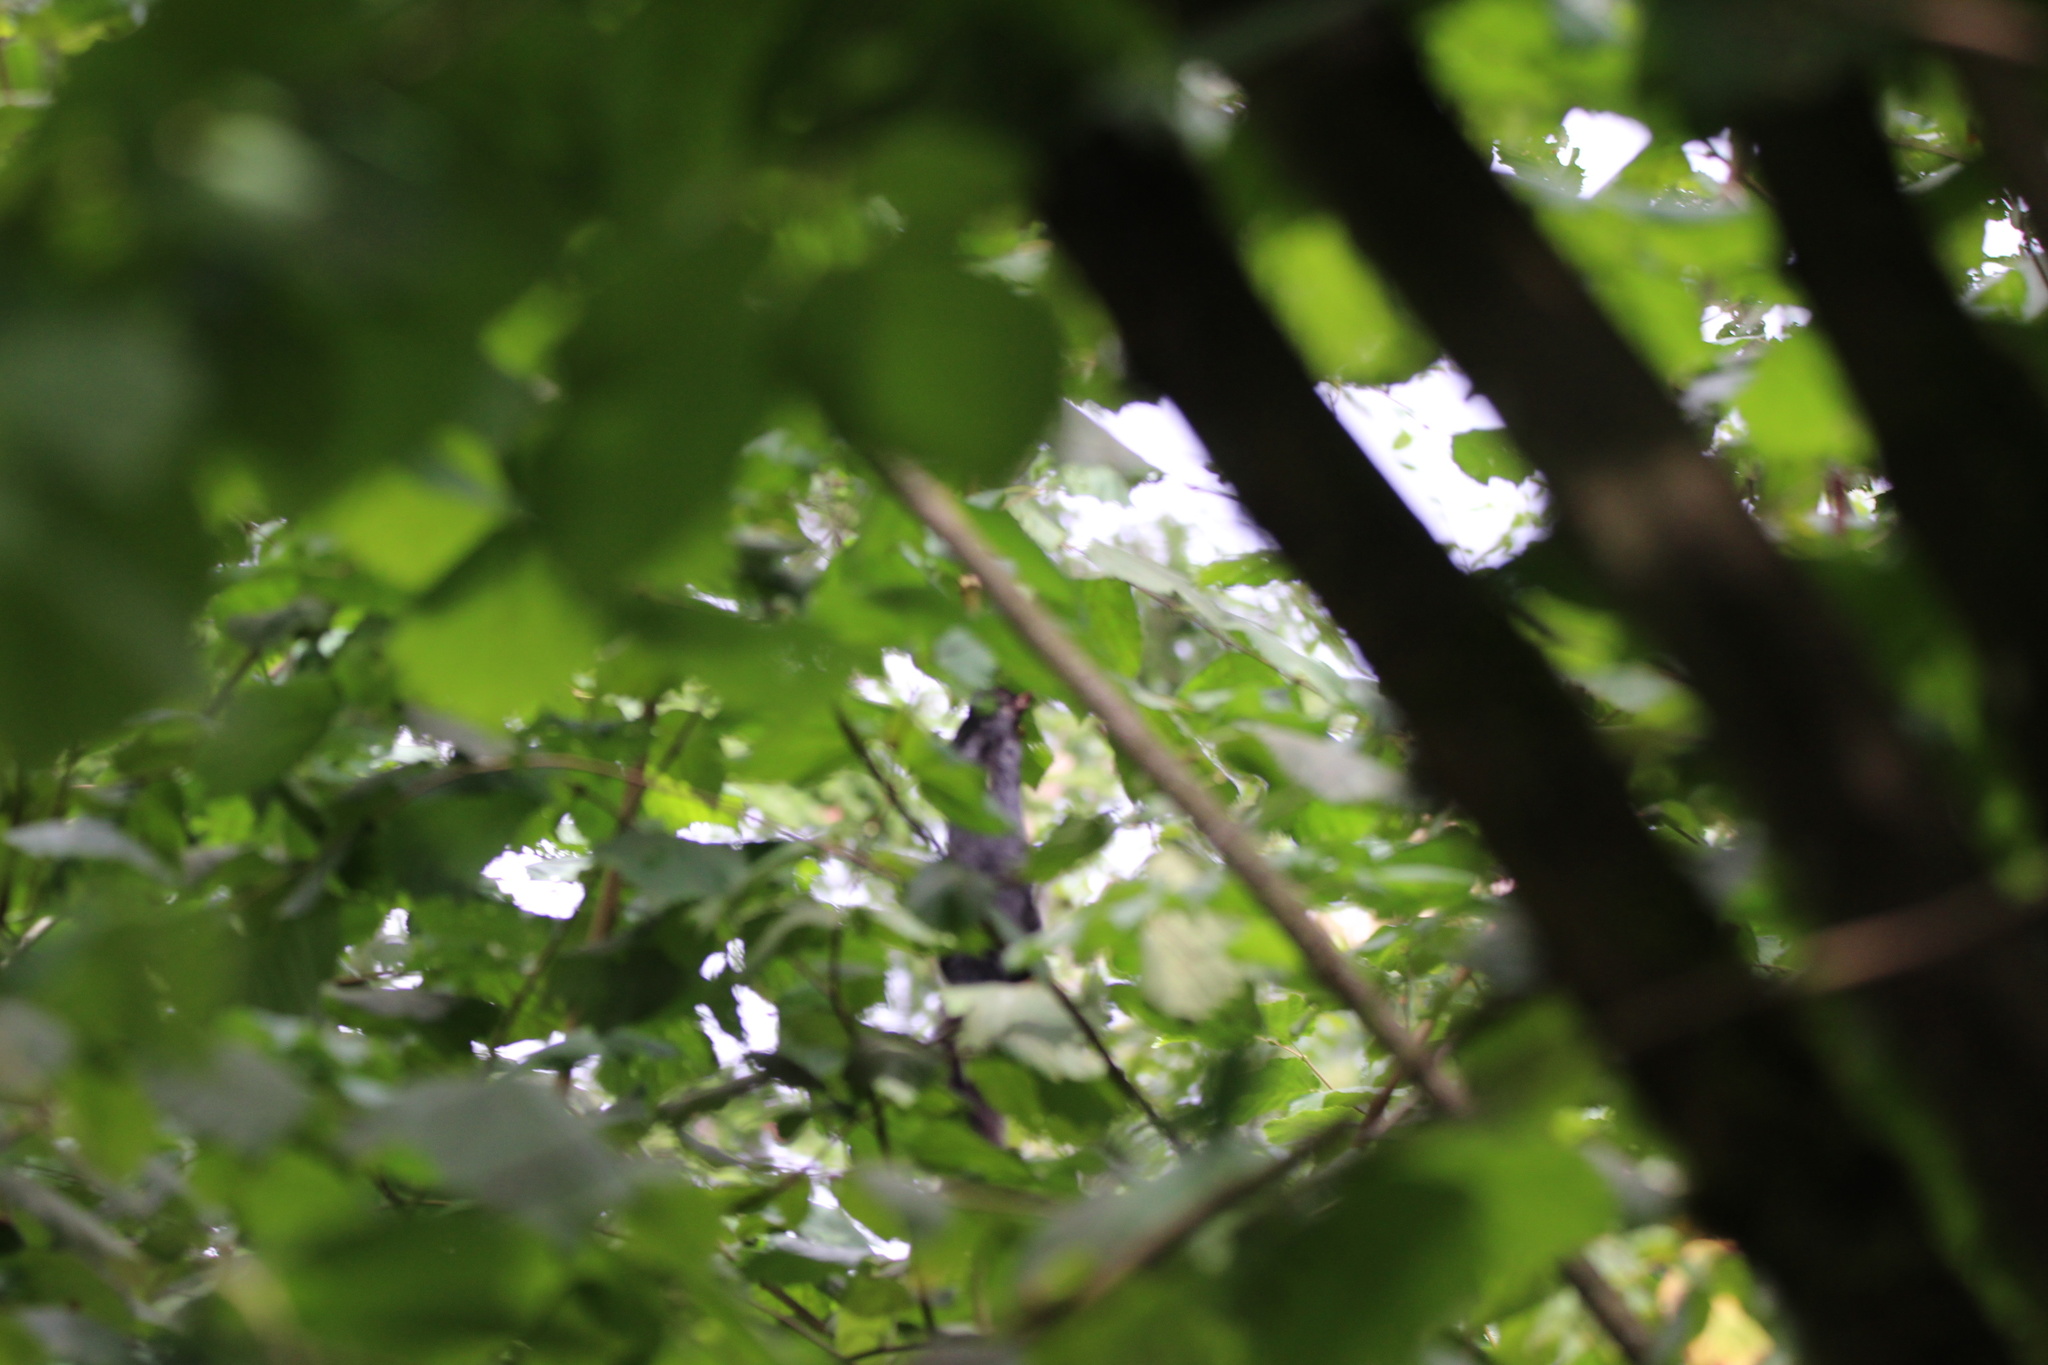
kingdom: Animalia
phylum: Chordata
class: Mammalia
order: Rodentia
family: Sciuridae
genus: Sciurus
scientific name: Sciurus carolinensis
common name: Eastern gray squirrel
